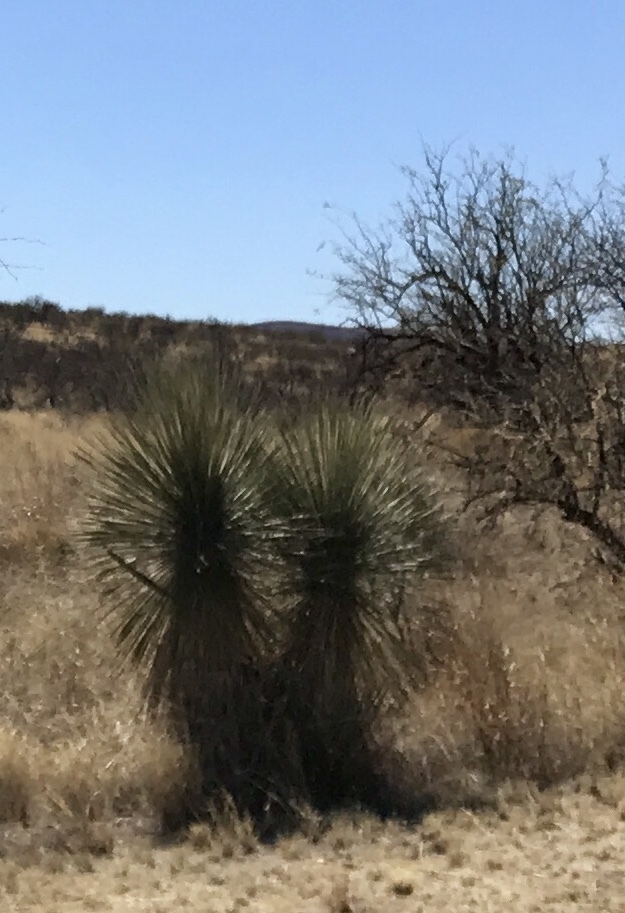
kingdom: Plantae
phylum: Tracheophyta
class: Liliopsida
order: Asparagales
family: Asparagaceae
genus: Yucca
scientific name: Yucca elata
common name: Palmella
